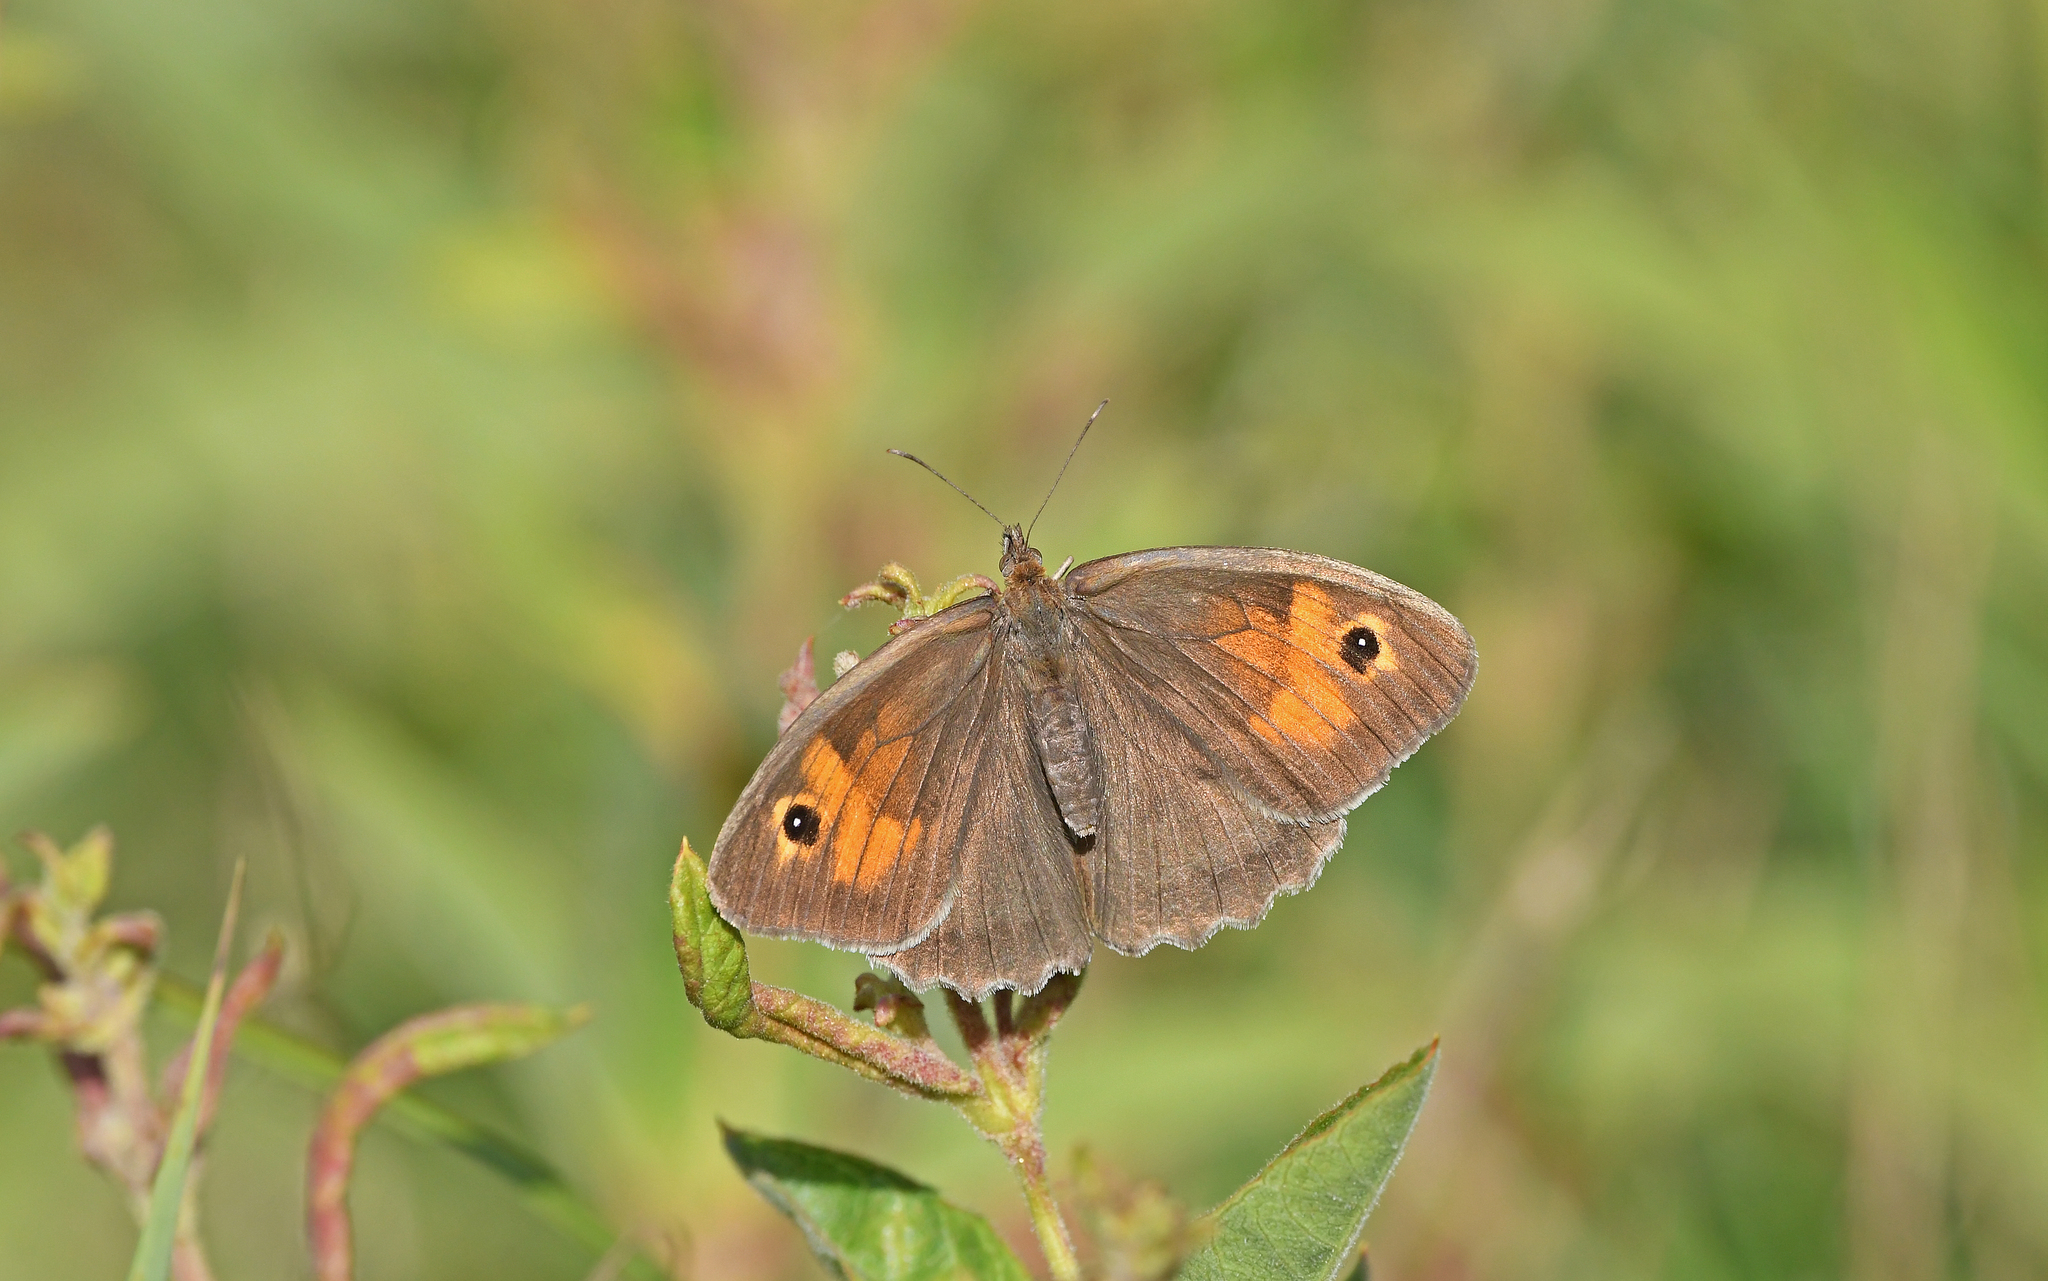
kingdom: Animalia
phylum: Arthropoda
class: Insecta
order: Lepidoptera
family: Nymphalidae
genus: Maniola
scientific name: Maniola jurtina
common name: Meadow brown
